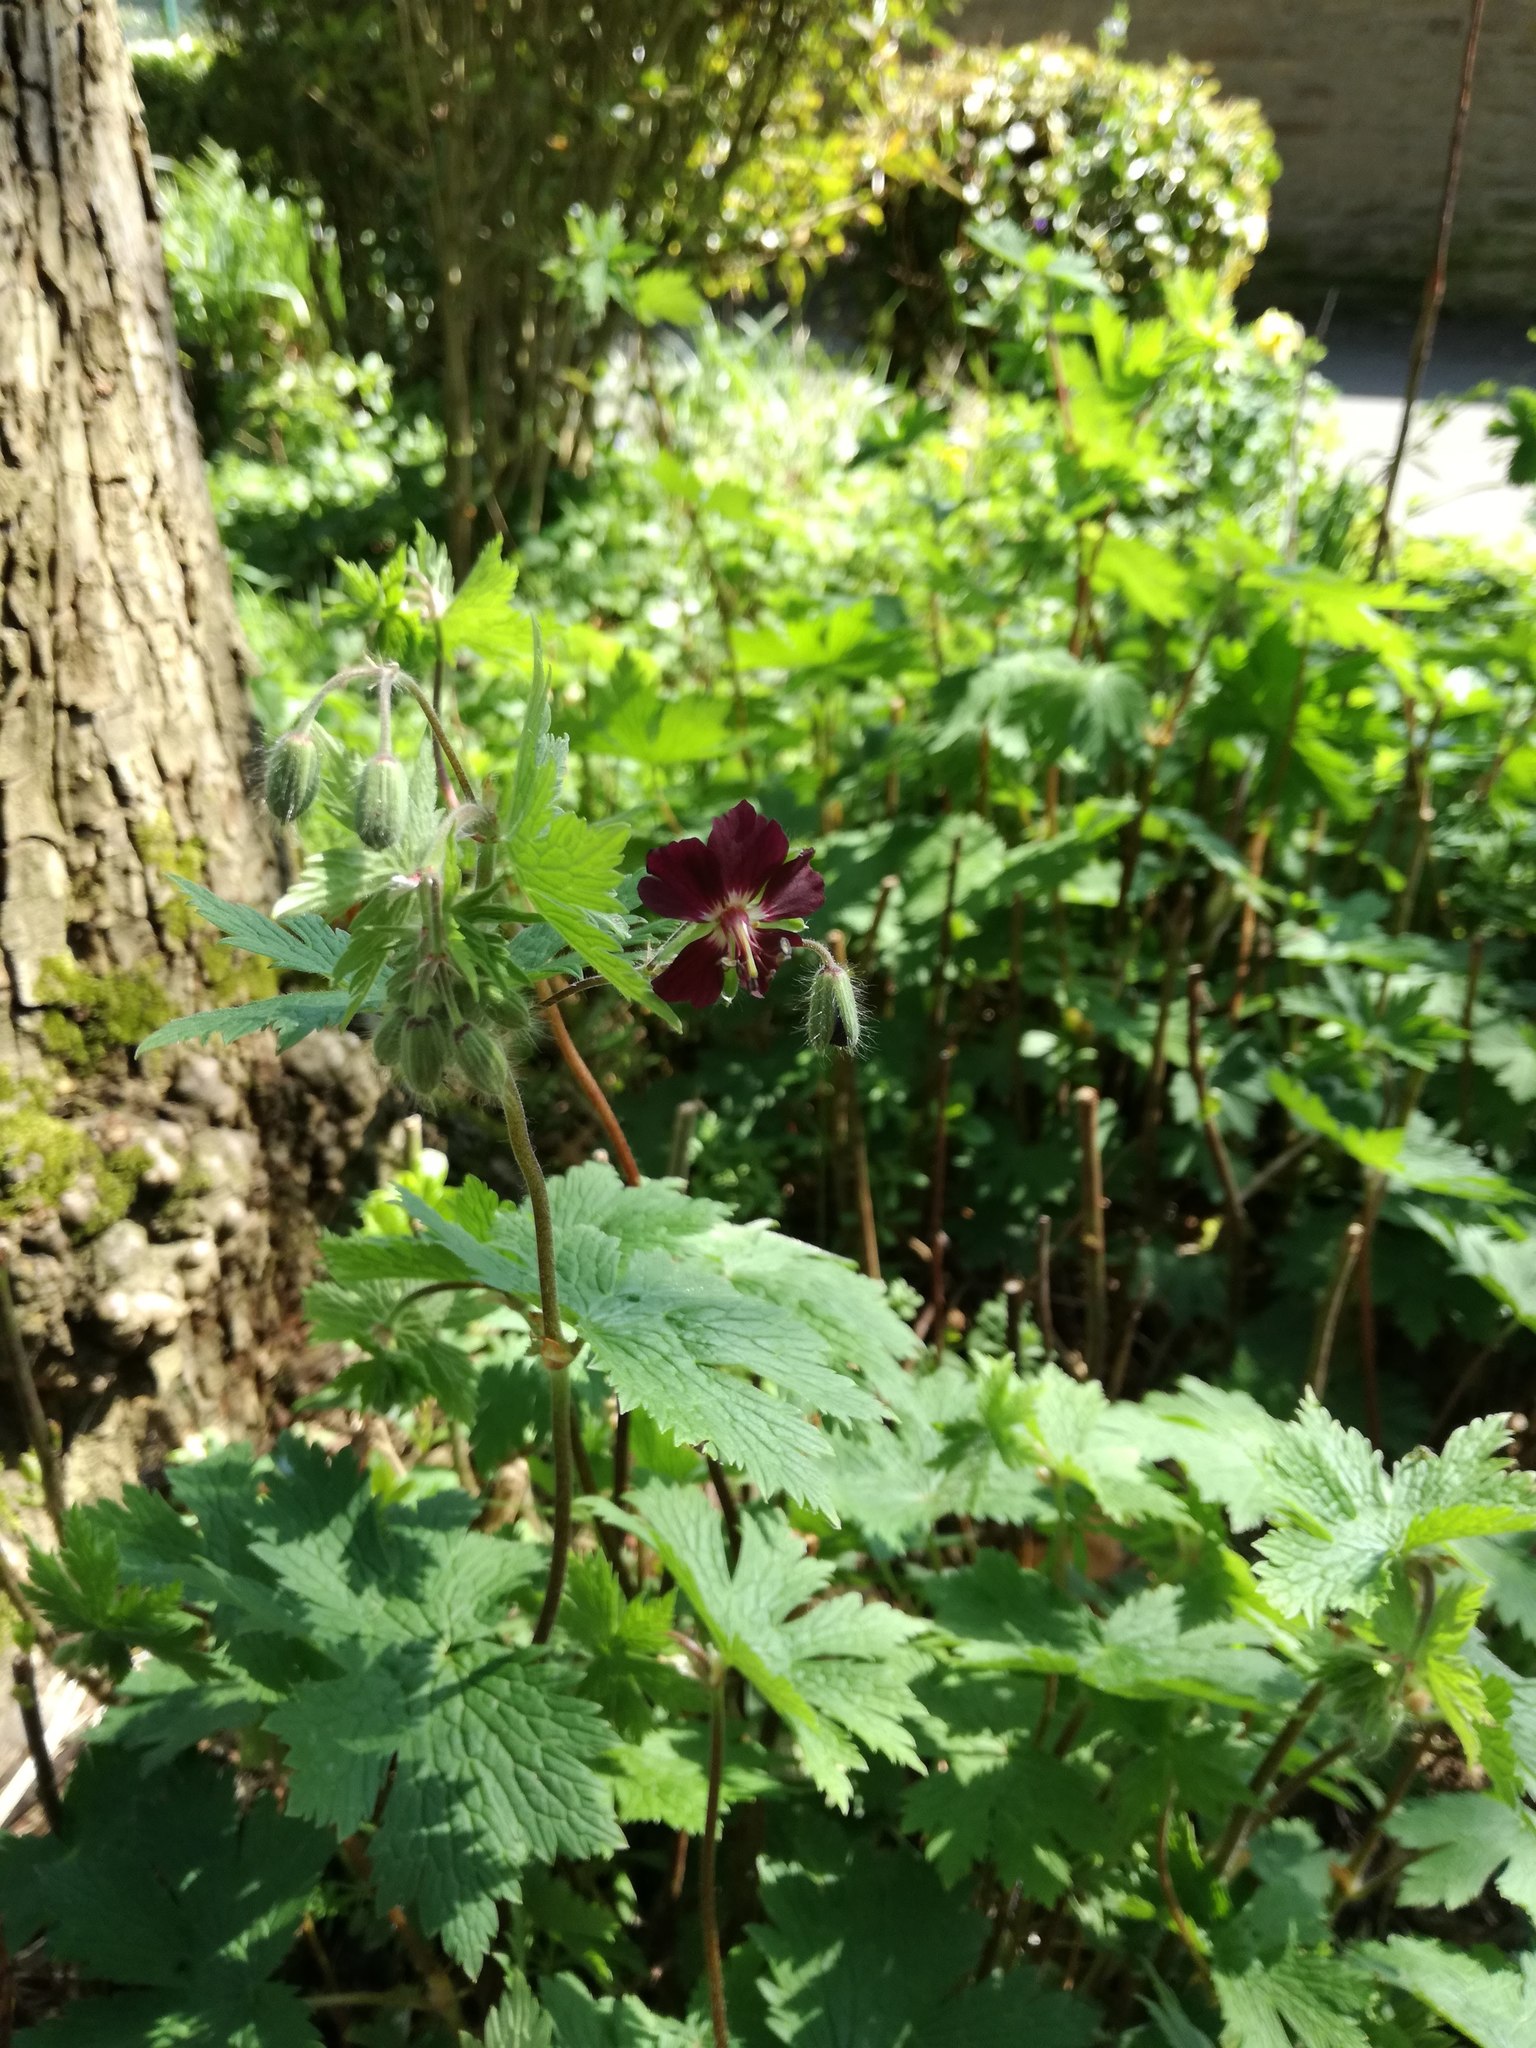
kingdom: Plantae
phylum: Tracheophyta
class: Magnoliopsida
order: Geraniales
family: Geraniaceae
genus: Geranium
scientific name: Geranium phaeum
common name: Dusky crane's-bill
